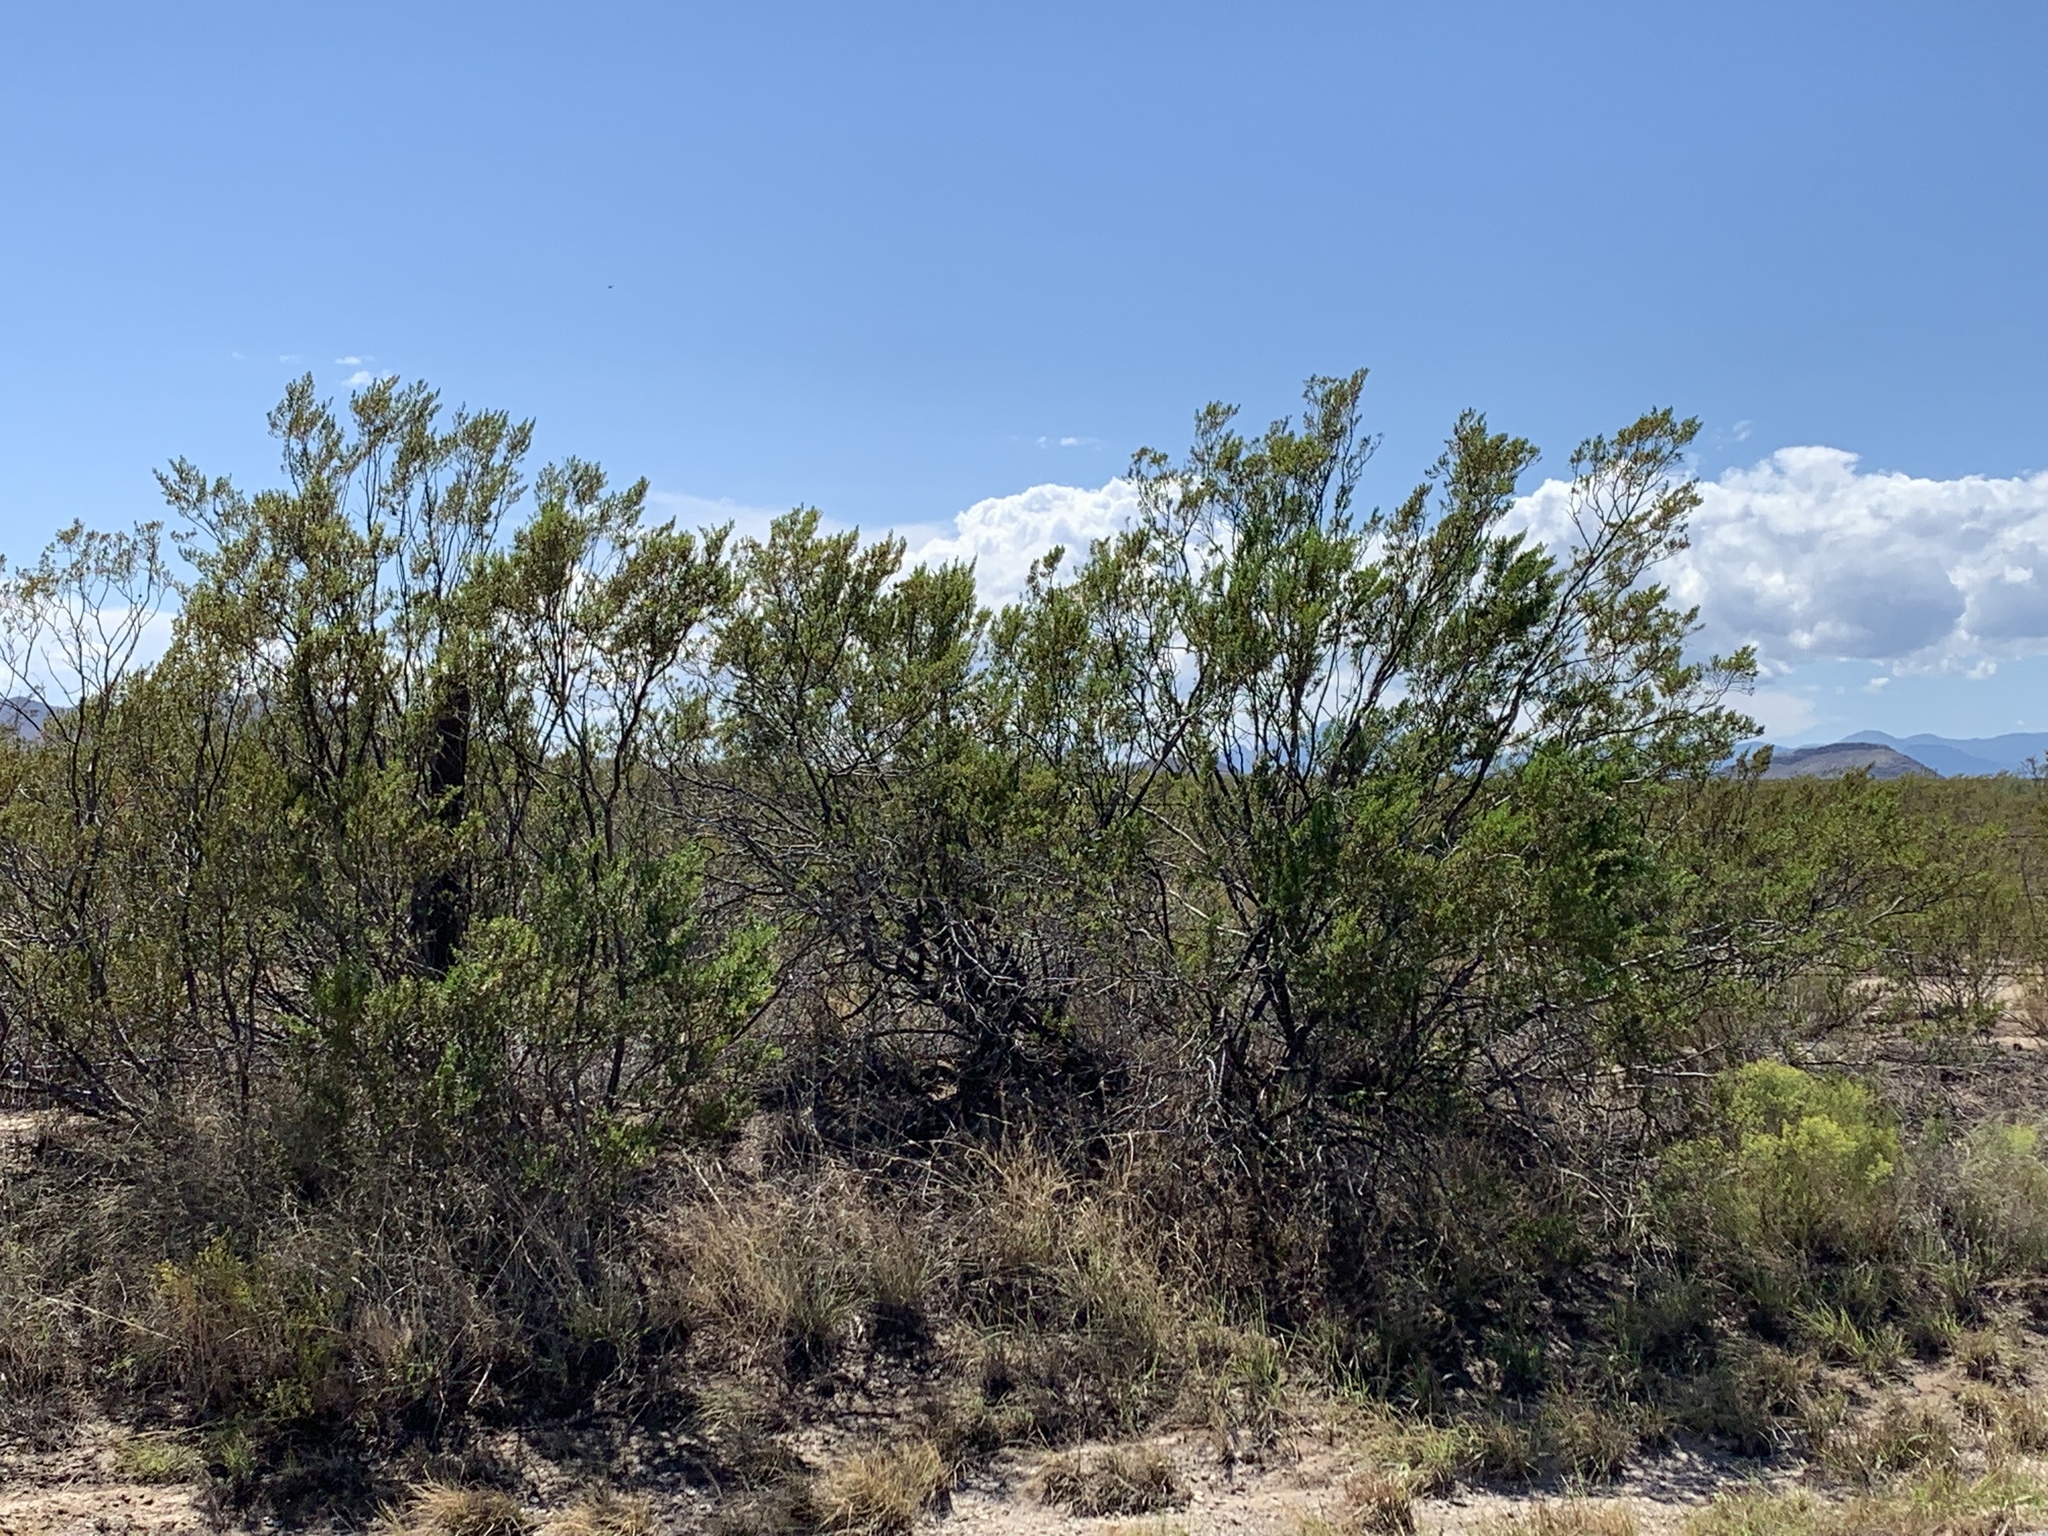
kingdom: Plantae
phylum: Tracheophyta
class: Magnoliopsida
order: Zygophyllales
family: Zygophyllaceae
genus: Larrea
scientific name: Larrea tridentata
